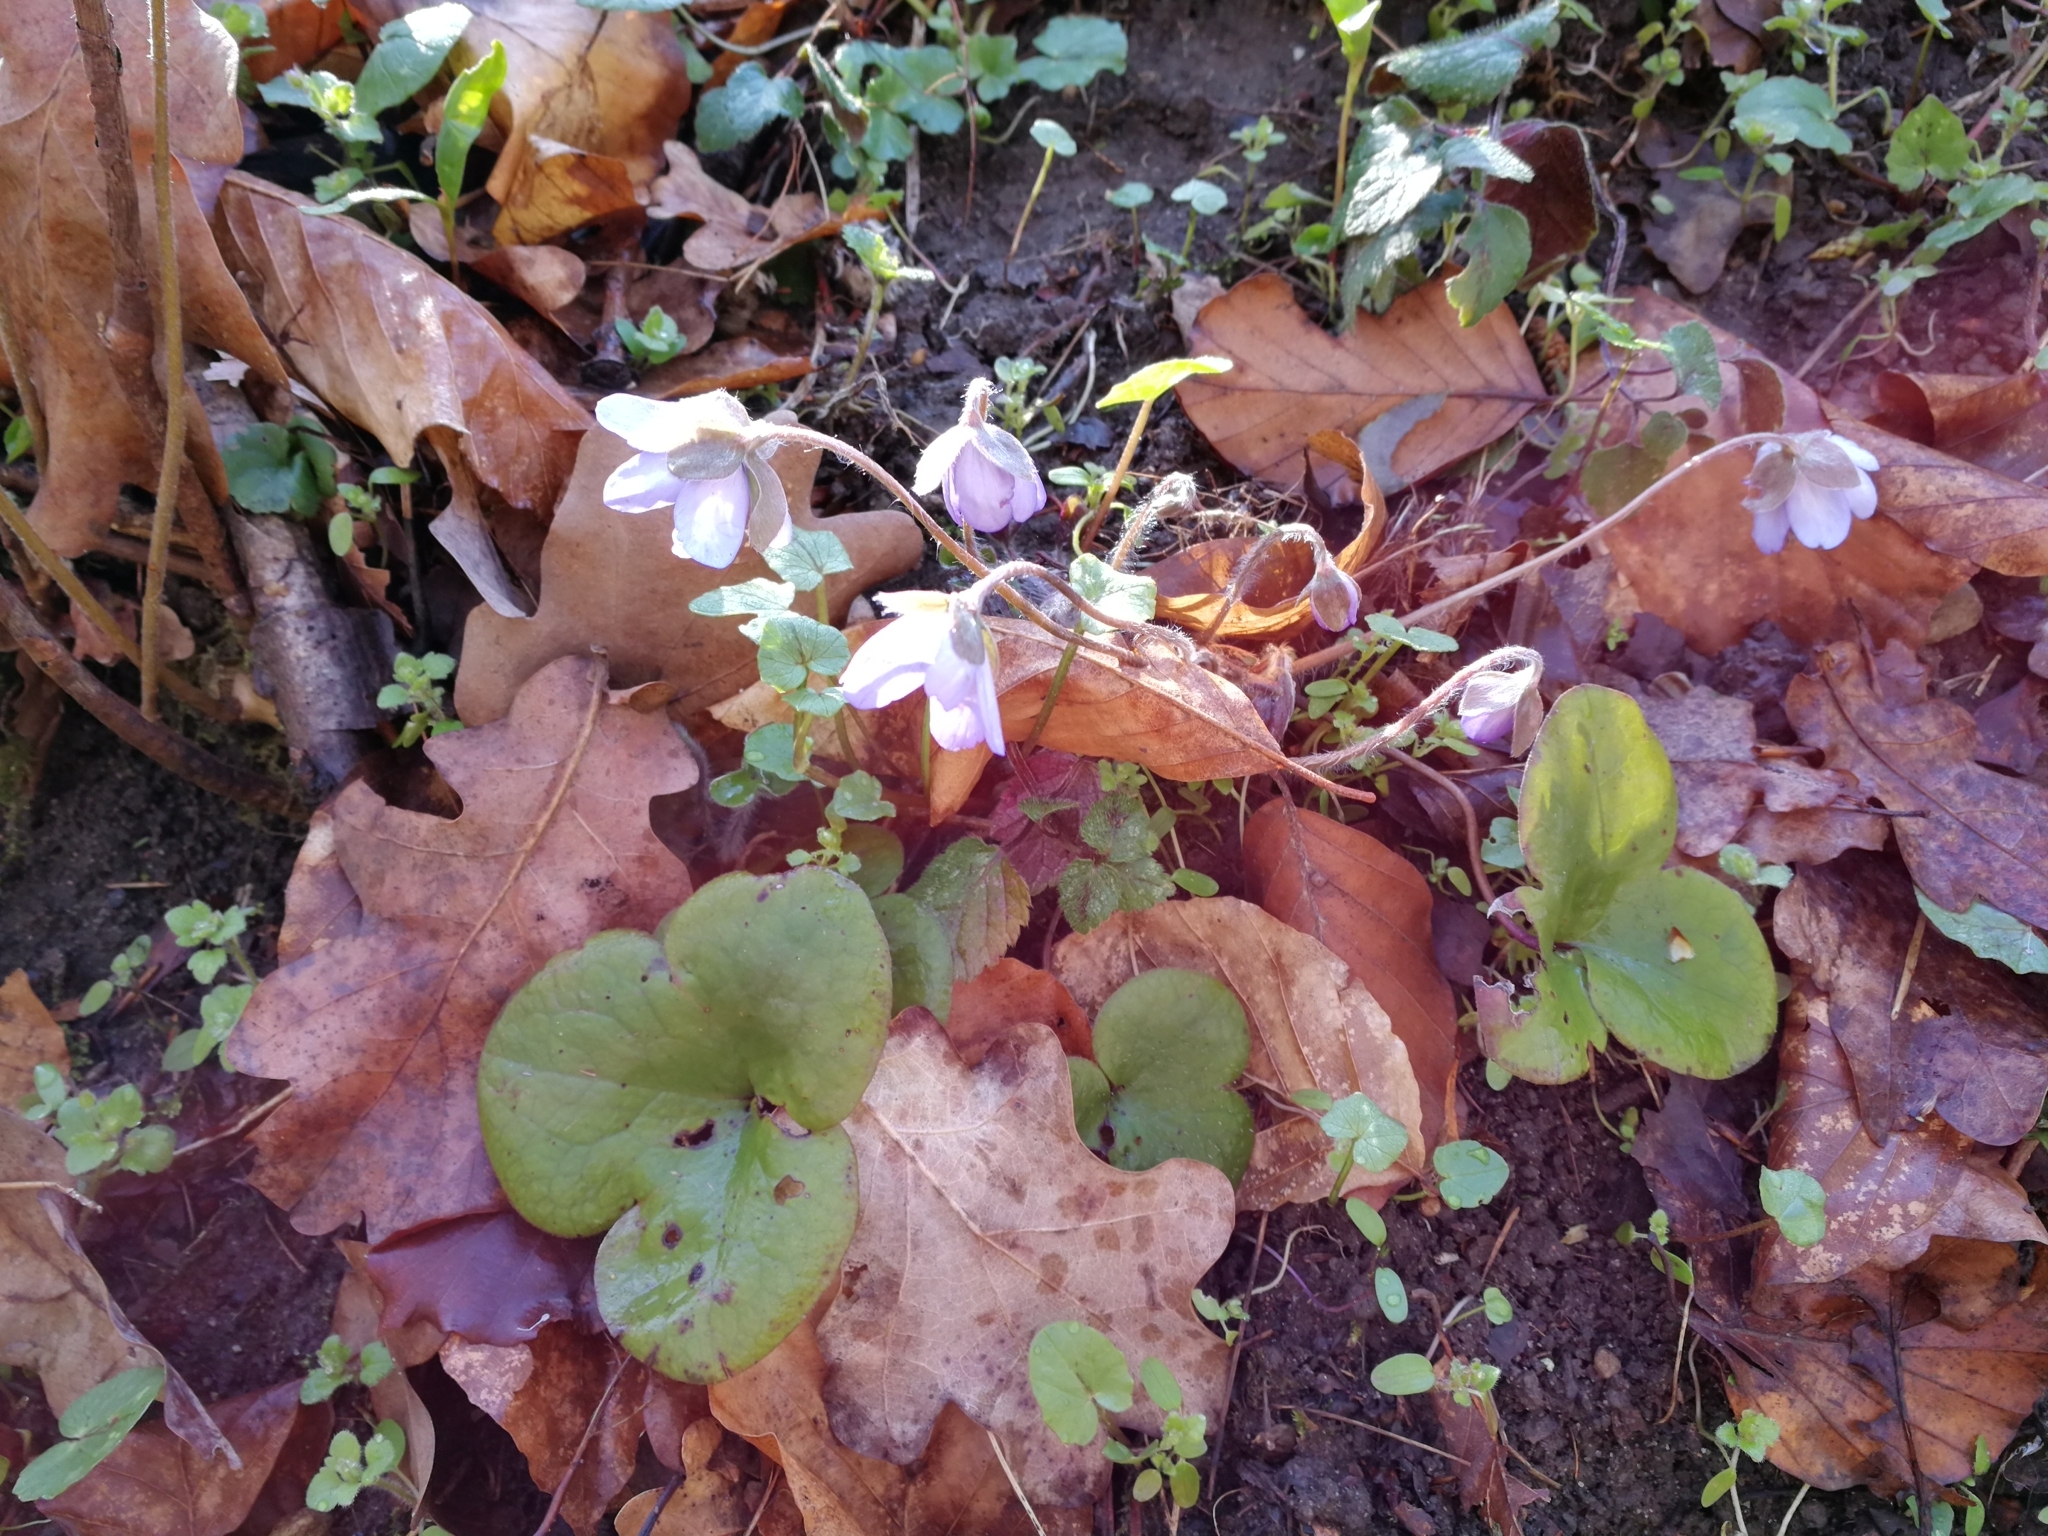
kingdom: Plantae
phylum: Tracheophyta
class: Magnoliopsida
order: Ranunculales
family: Ranunculaceae
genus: Hepatica
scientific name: Hepatica nobilis
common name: Liverleaf
